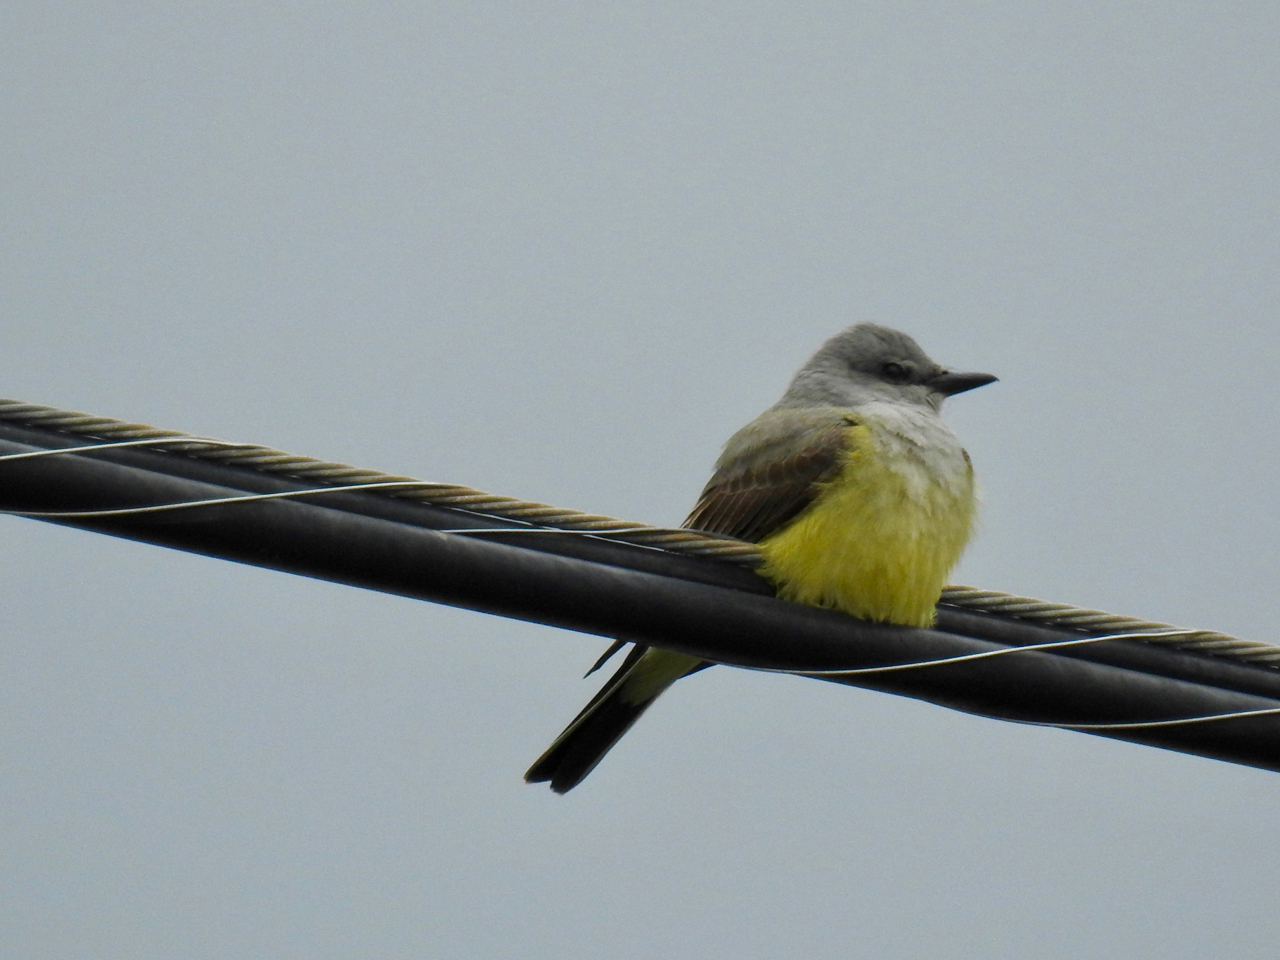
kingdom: Animalia
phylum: Chordata
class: Aves
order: Passeriformes
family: Tyrannidae
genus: Tyrannus
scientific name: Tyrannus verticalis
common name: Western kingbird
